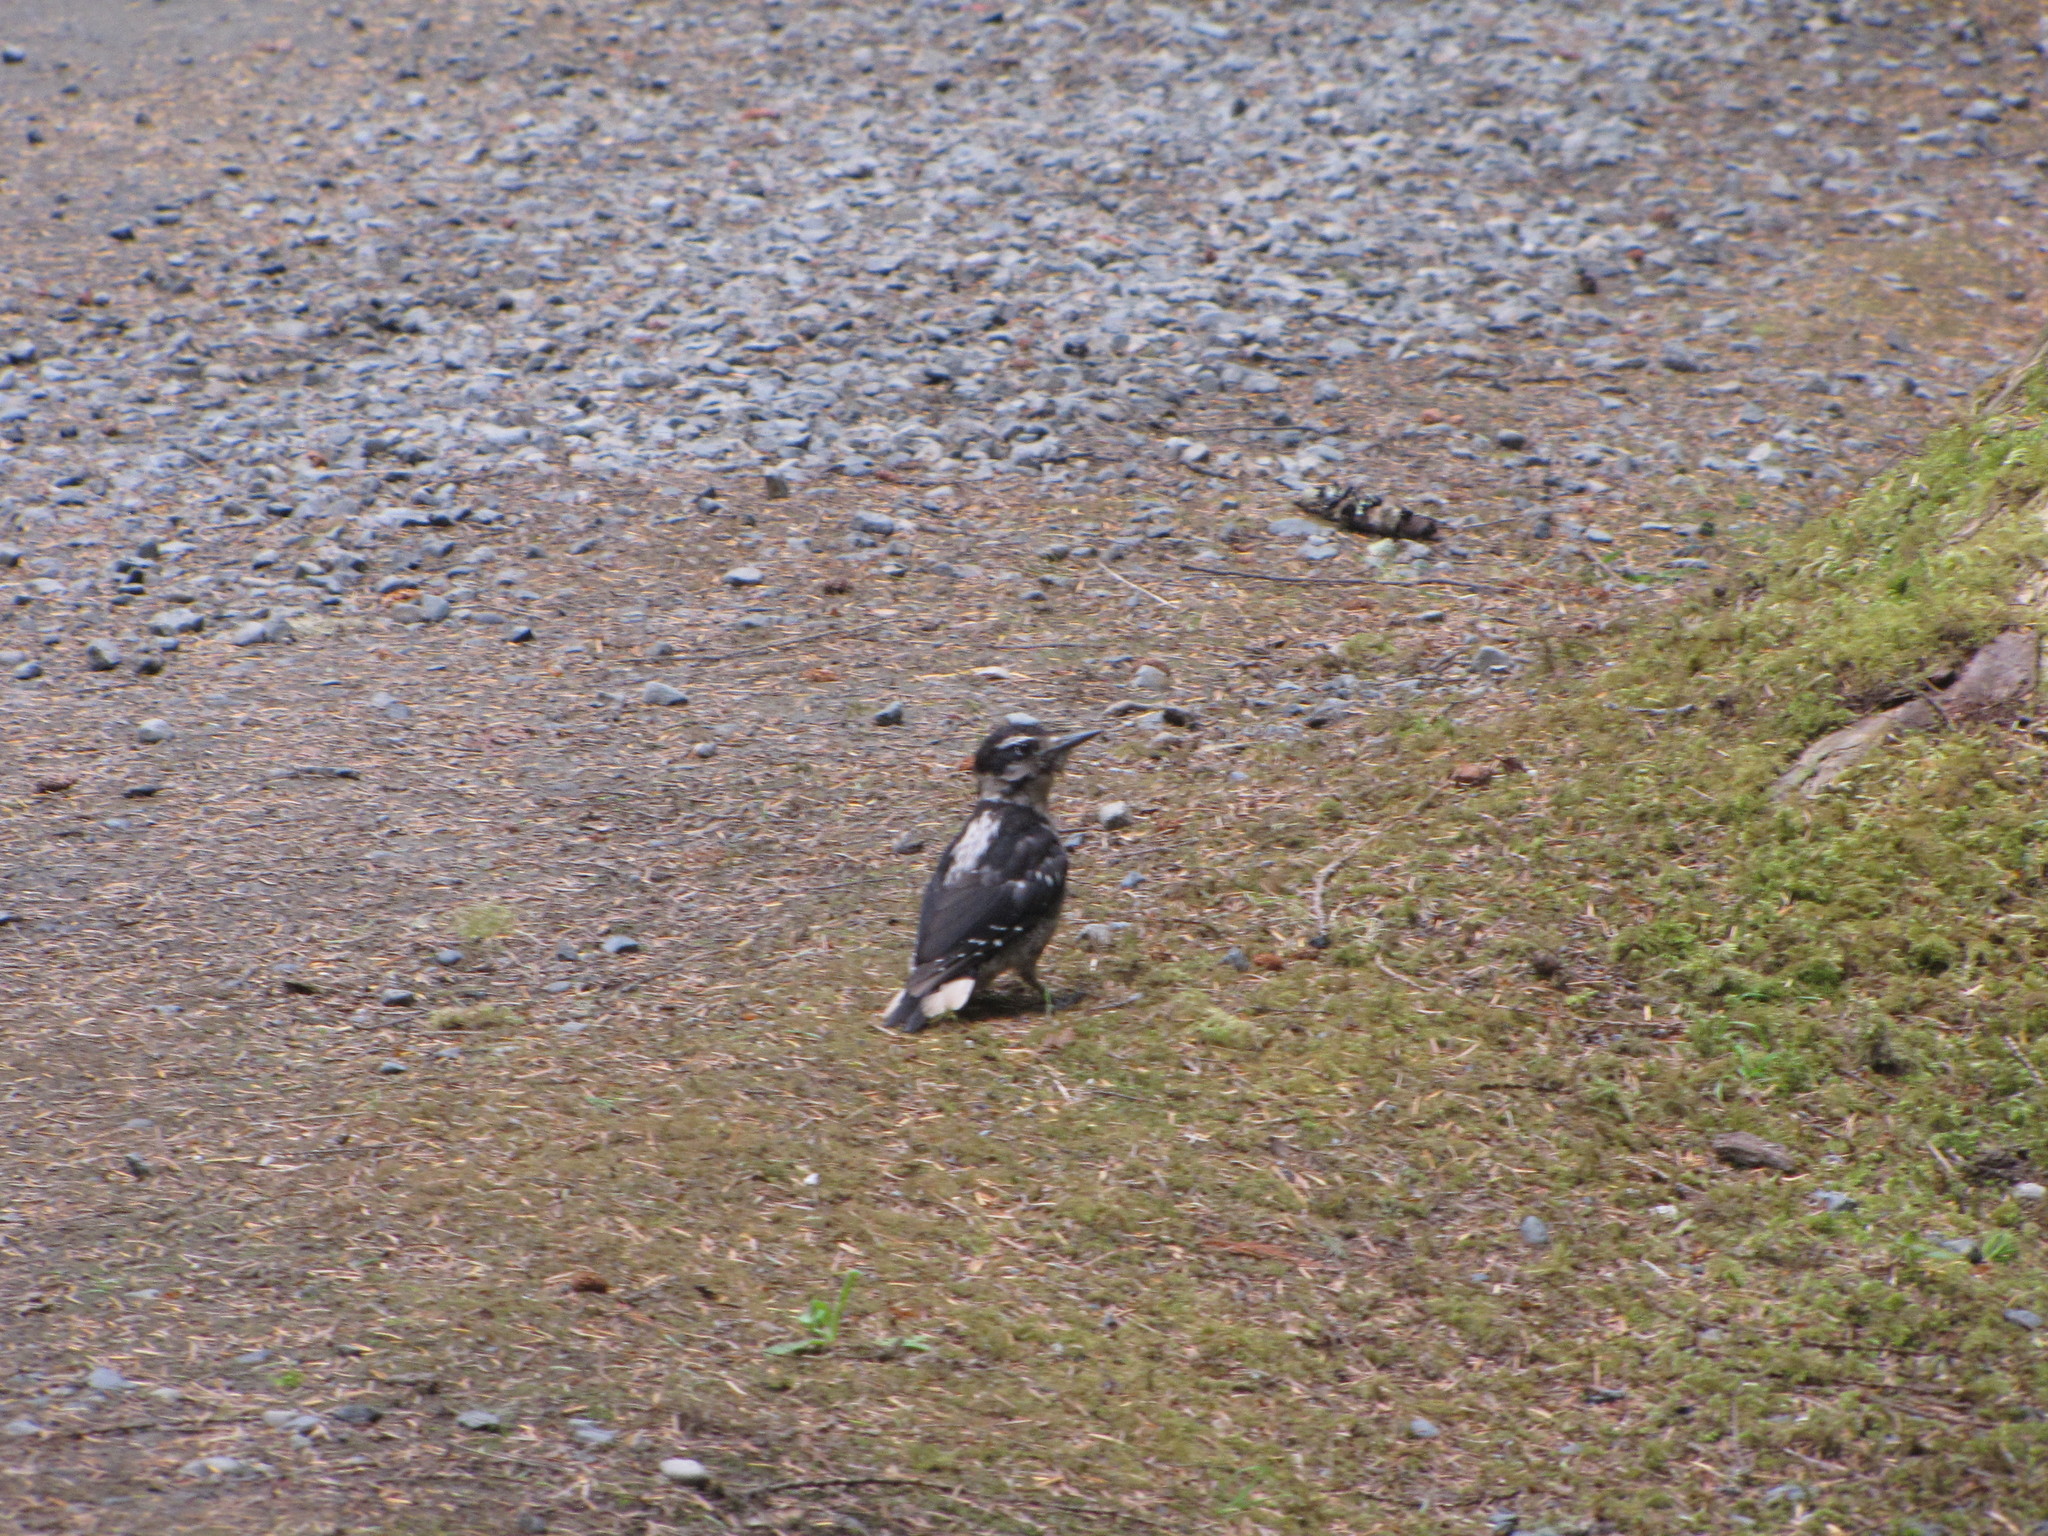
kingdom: Animalia
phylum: Chordata
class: Aves
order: Piciformes
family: Picidae
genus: Leuconotopicus
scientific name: Leuconotopicus villosus
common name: Hairy woodpecker
